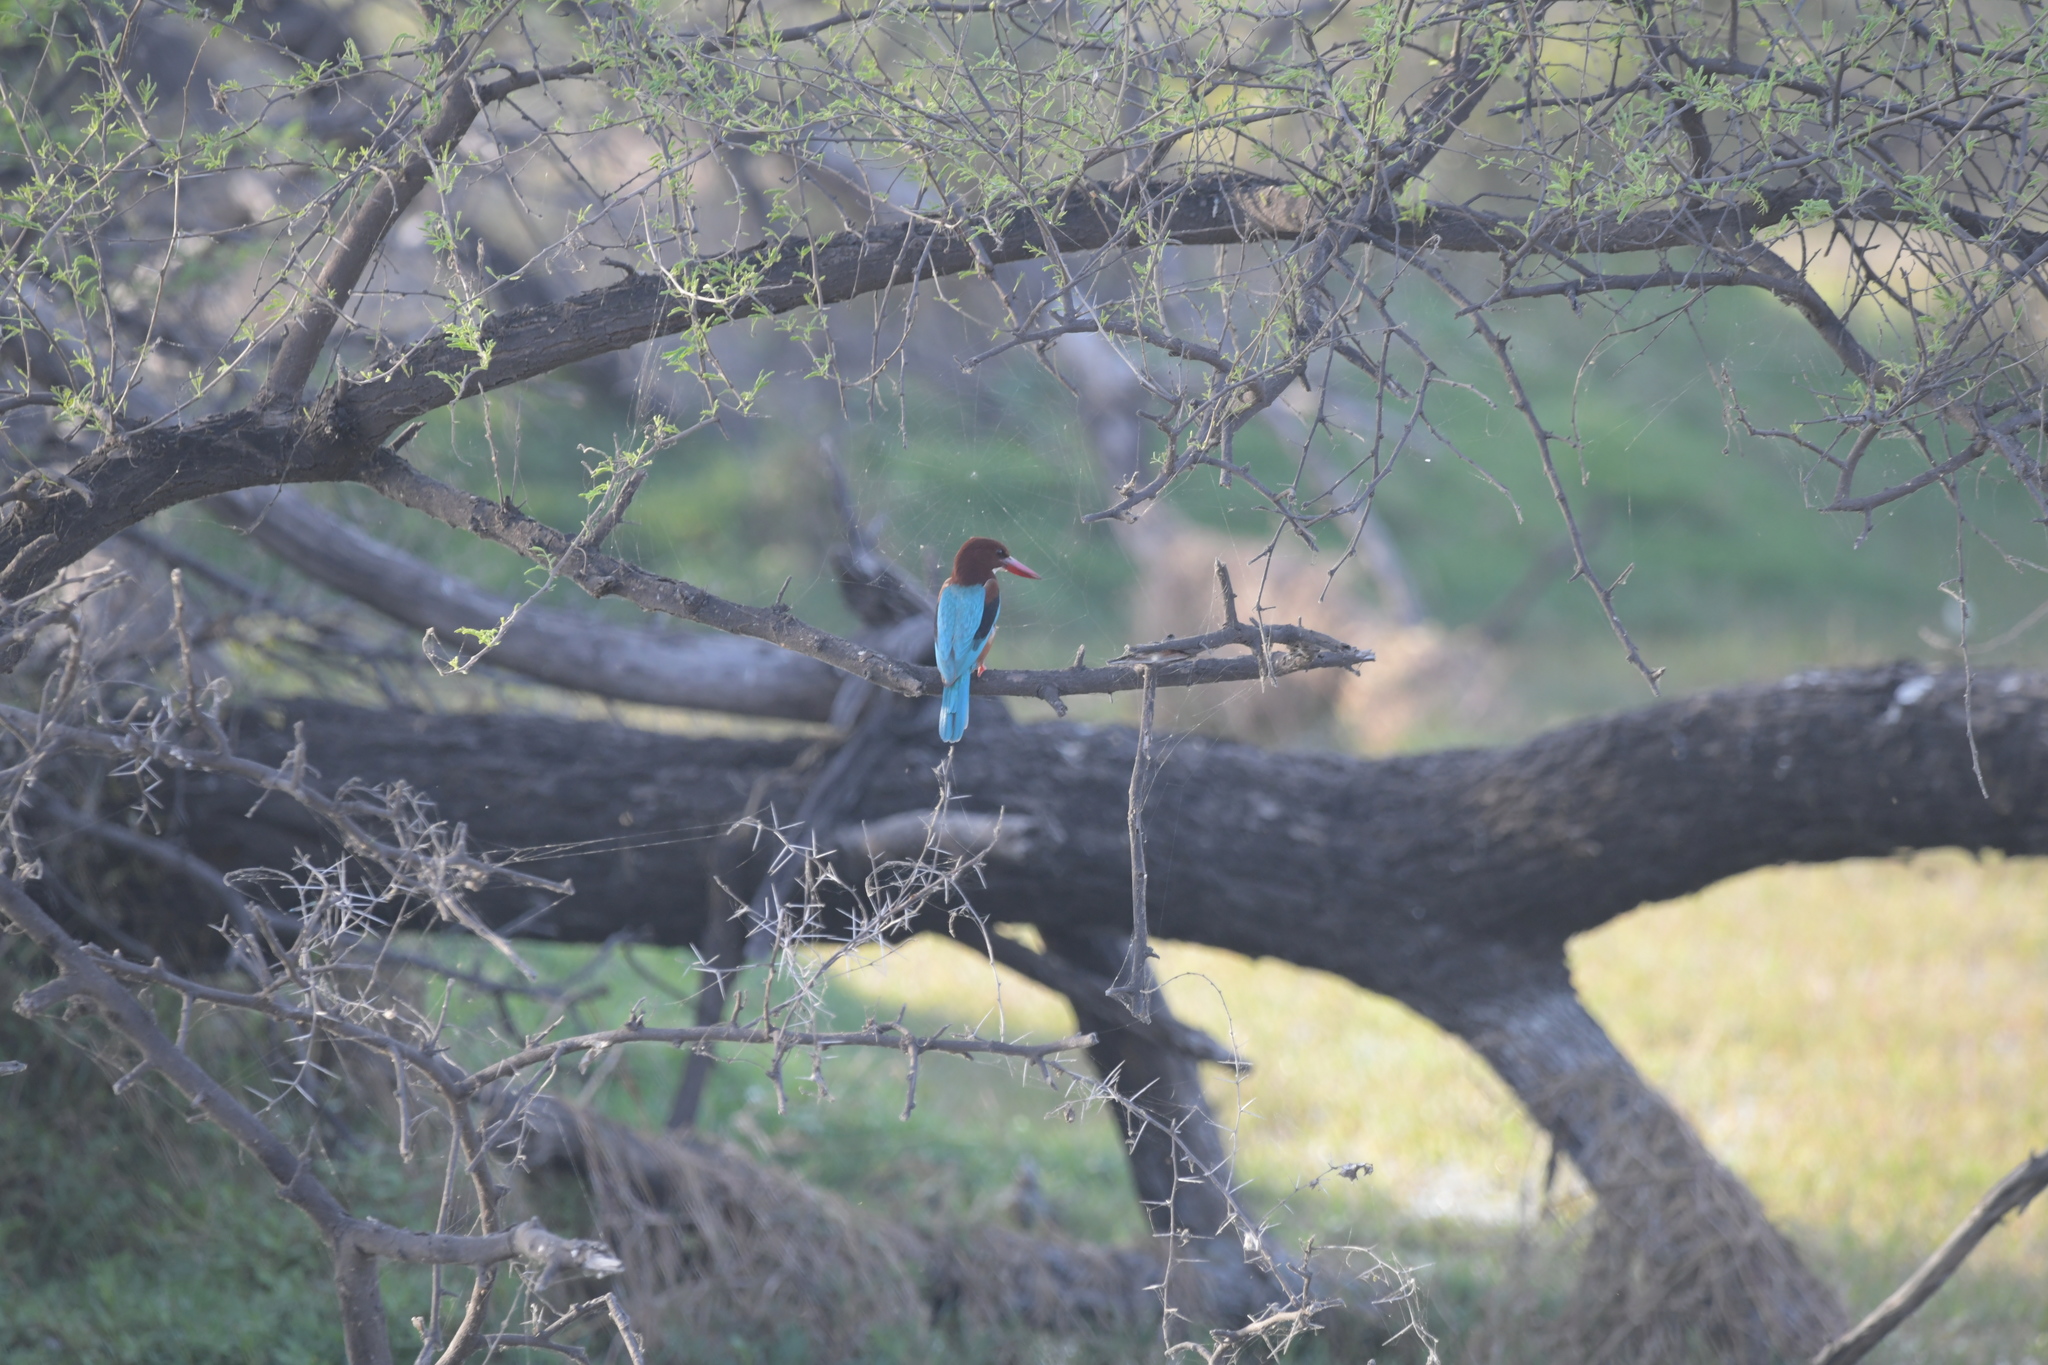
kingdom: Animalia
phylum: Chordata
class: Aves
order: Coraciiformes
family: Alcedinidae
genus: Halcyon
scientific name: Halcyon smyrnensis
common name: White-throated kingfisher
